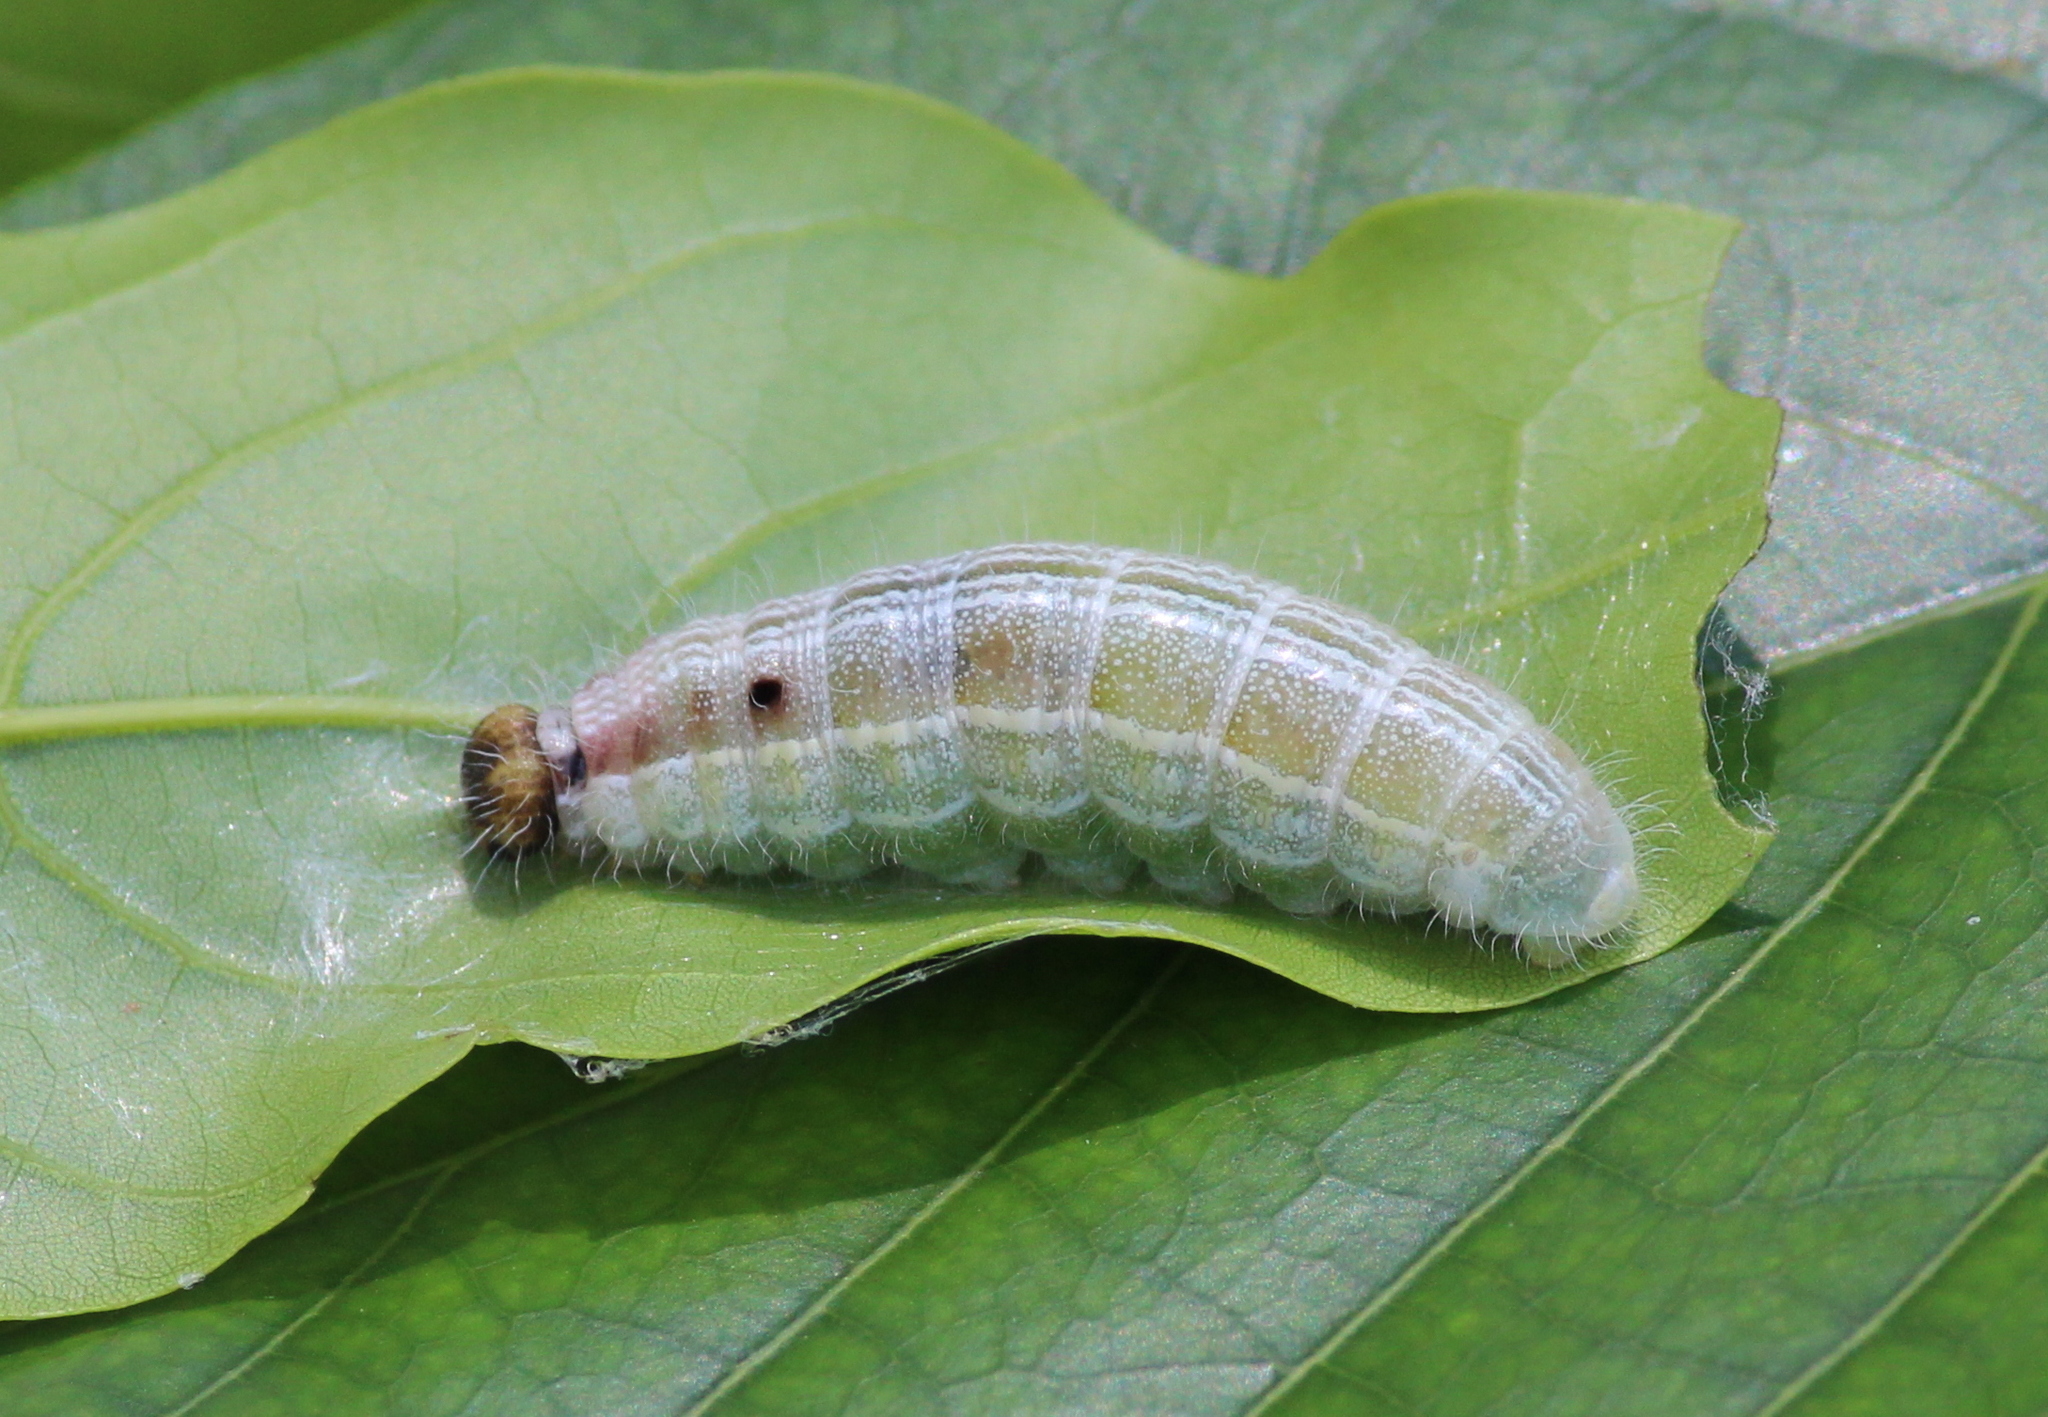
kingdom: Animalia
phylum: Arthropoda
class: Insecta
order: Lepidoptera
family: Hesperiidae
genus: Hasora
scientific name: Hasora chromus
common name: Common banded awl
